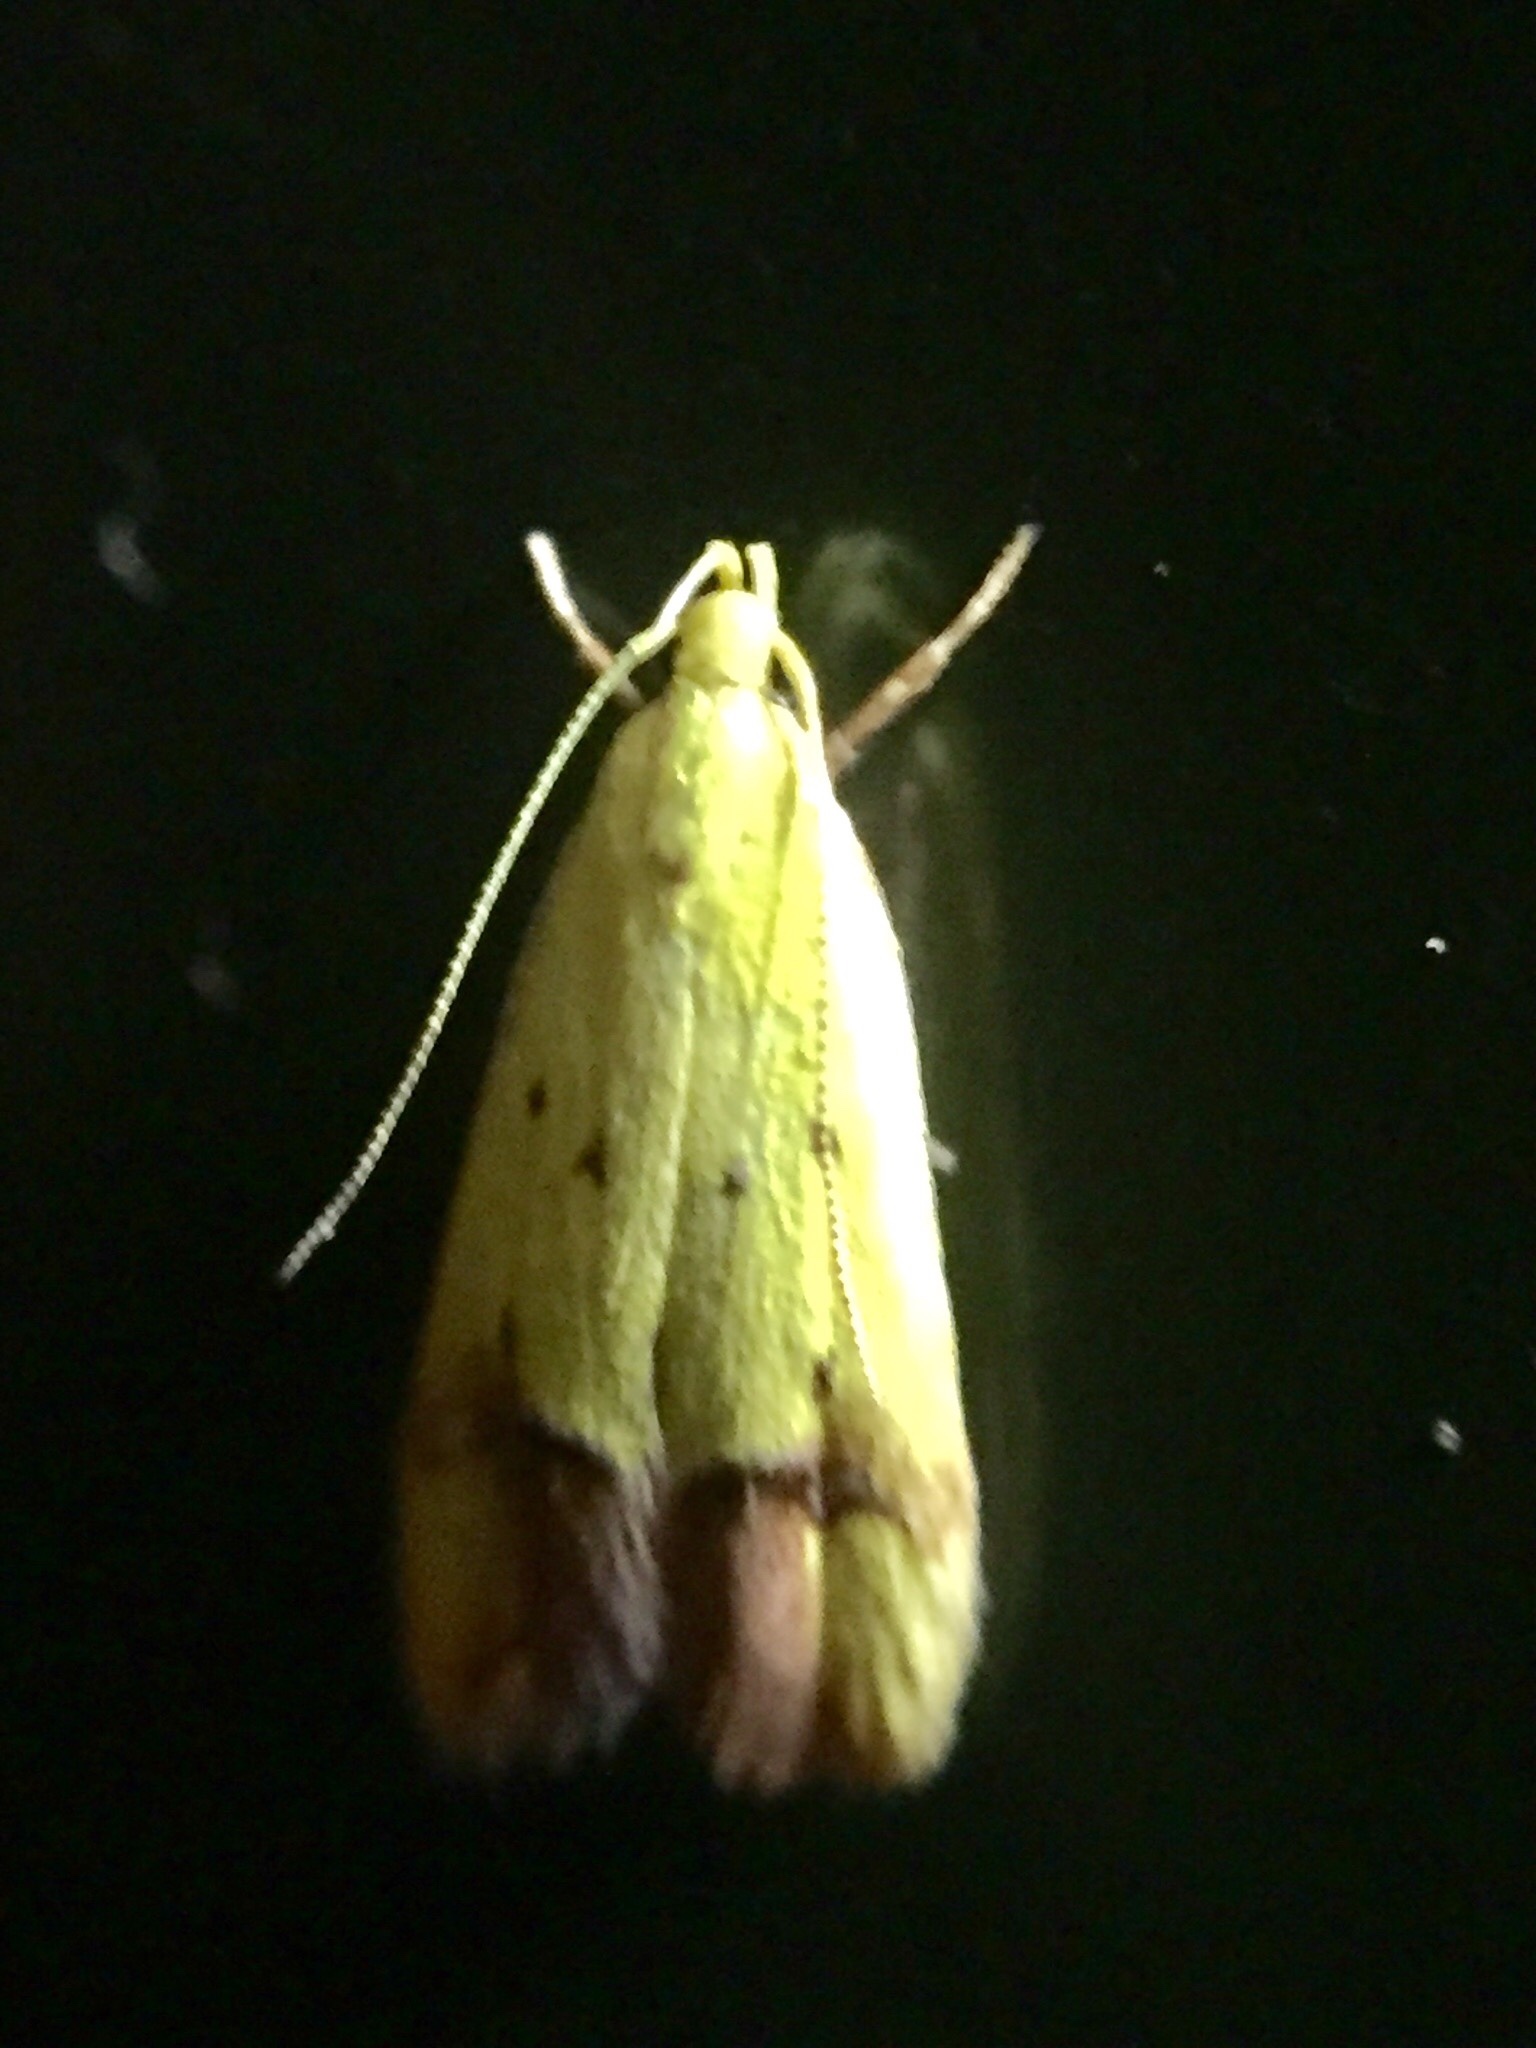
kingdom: Animalia
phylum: Arthropoda
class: Insecta
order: Lepidoptera
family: Oecophoridae
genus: Gymnobathra
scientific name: Gymnobathra flavidella
